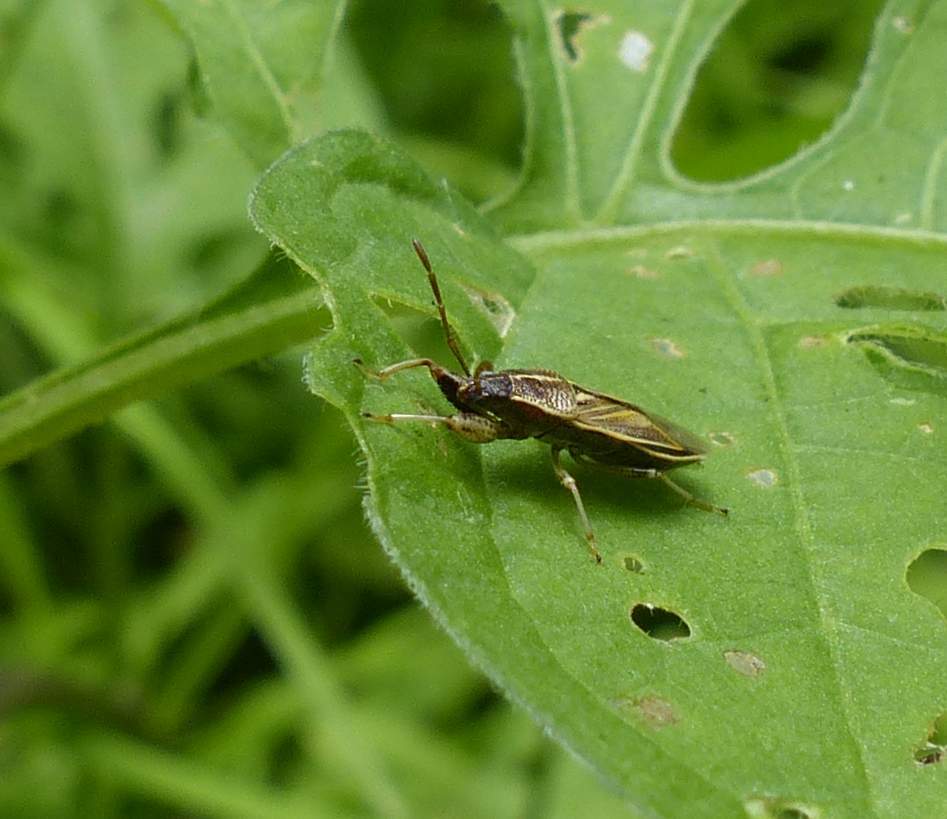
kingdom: Animalia
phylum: Arthropoda
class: Insecta
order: Hemiptera
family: Pachygronthidae
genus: Oedancala
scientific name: Oedancala dorsalis
